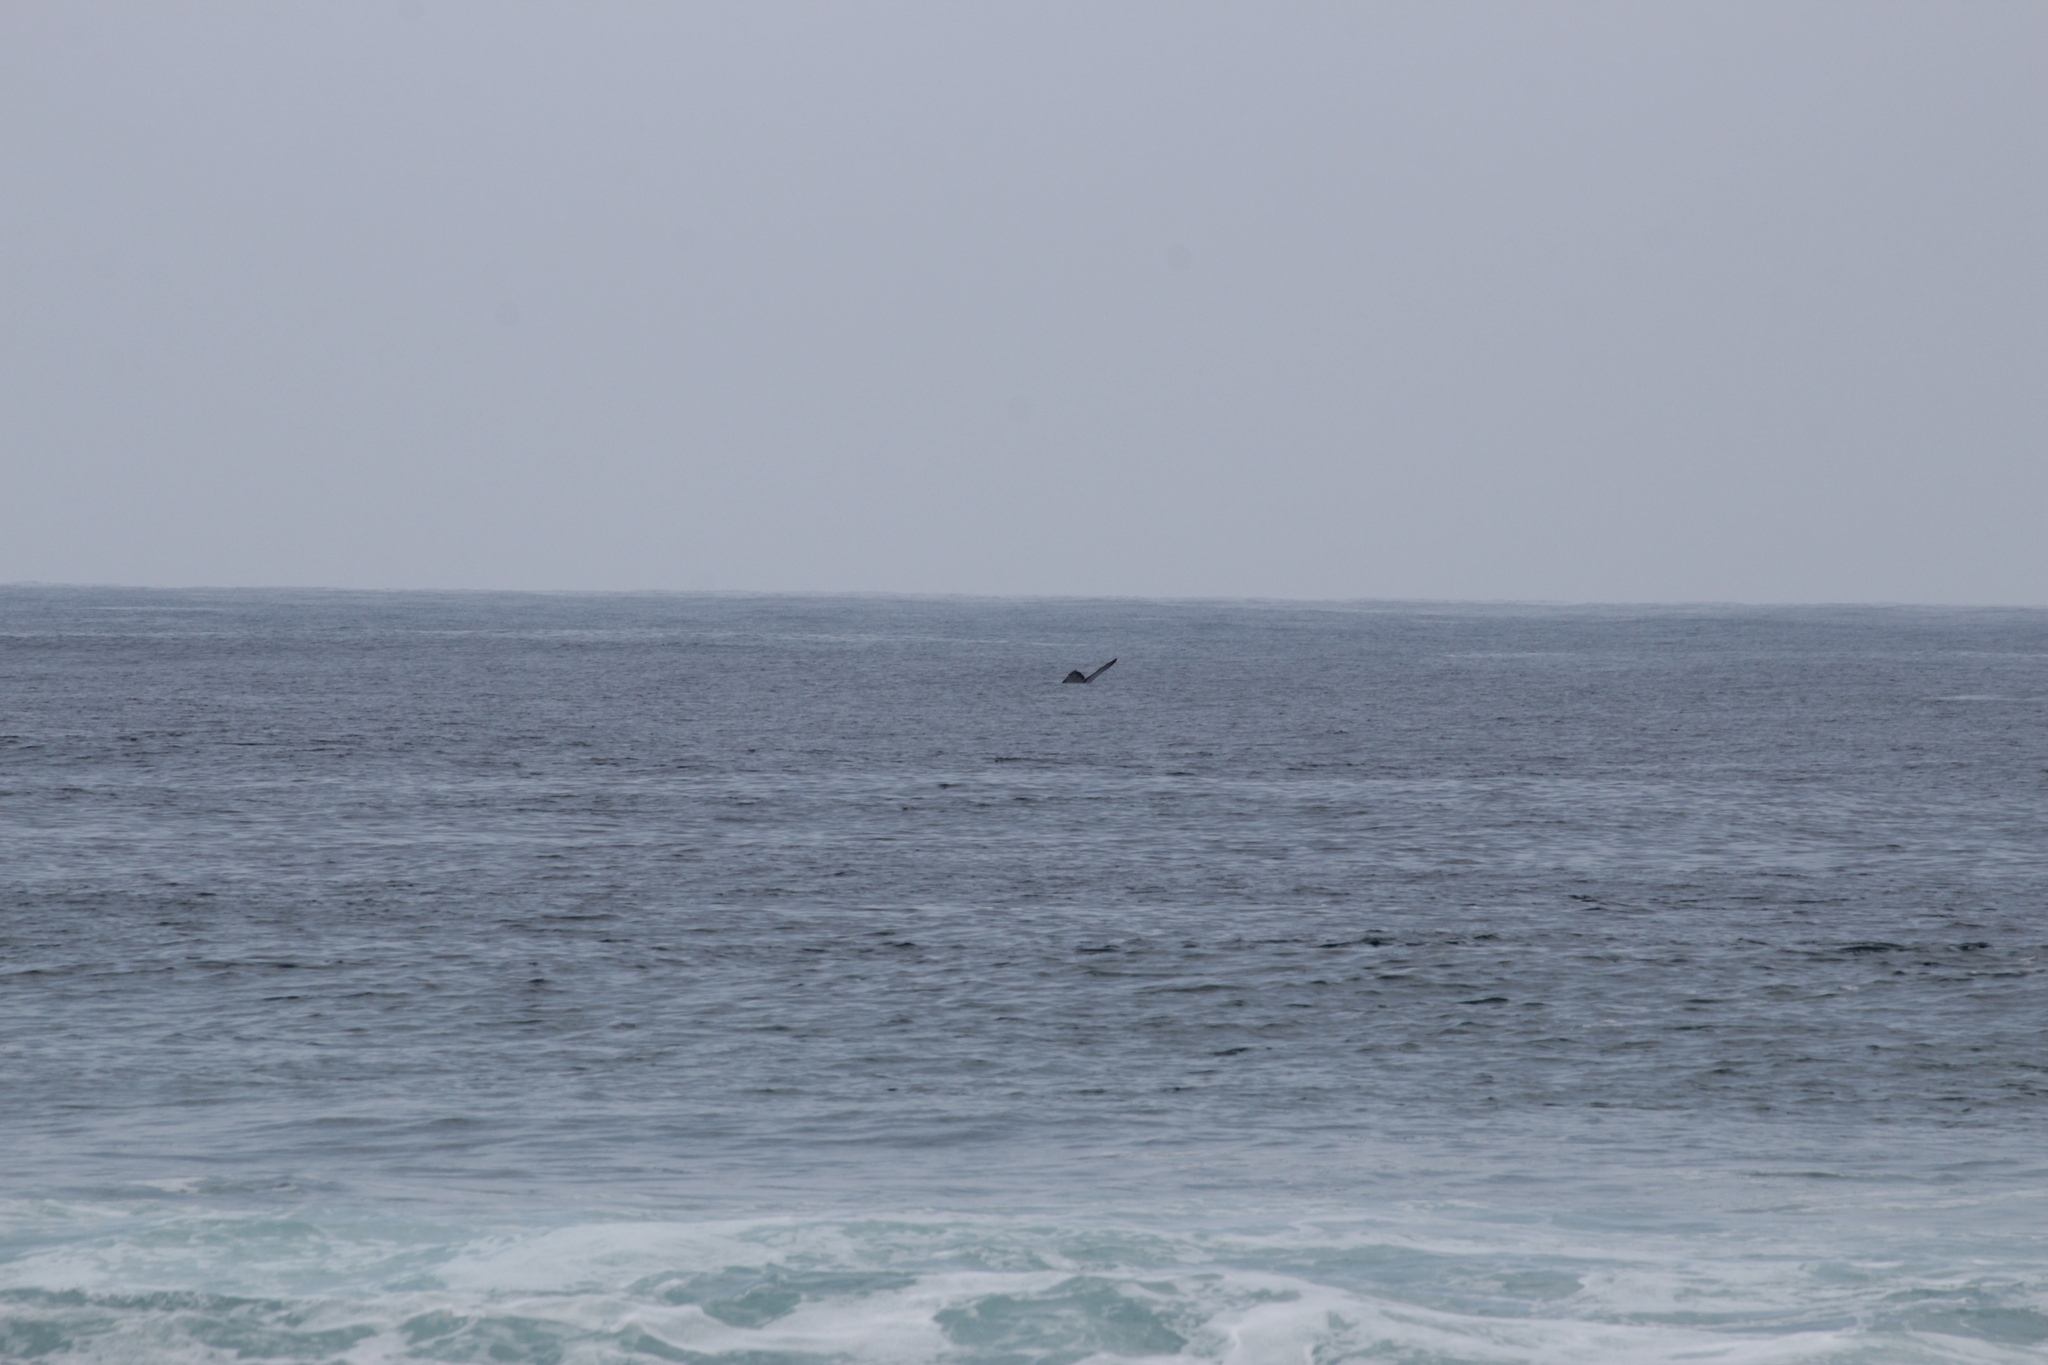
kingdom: Animalia
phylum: Chordata
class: Mammalia
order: Cetacea
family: Balaenopteridae
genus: Megaptera
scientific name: Megaptera novaeangliae
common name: Humpback whale
